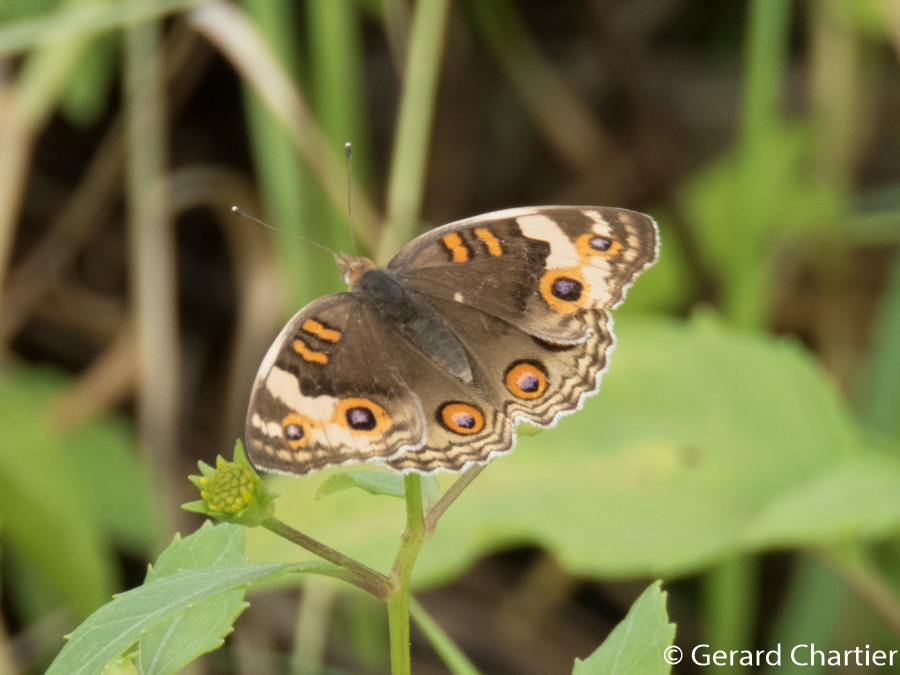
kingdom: Animalia
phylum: Arthropoda
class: Insecta
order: Lepidoptera
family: Nymphalidae
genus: Junonia
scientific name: Junonia orithya
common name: Blue pansy
